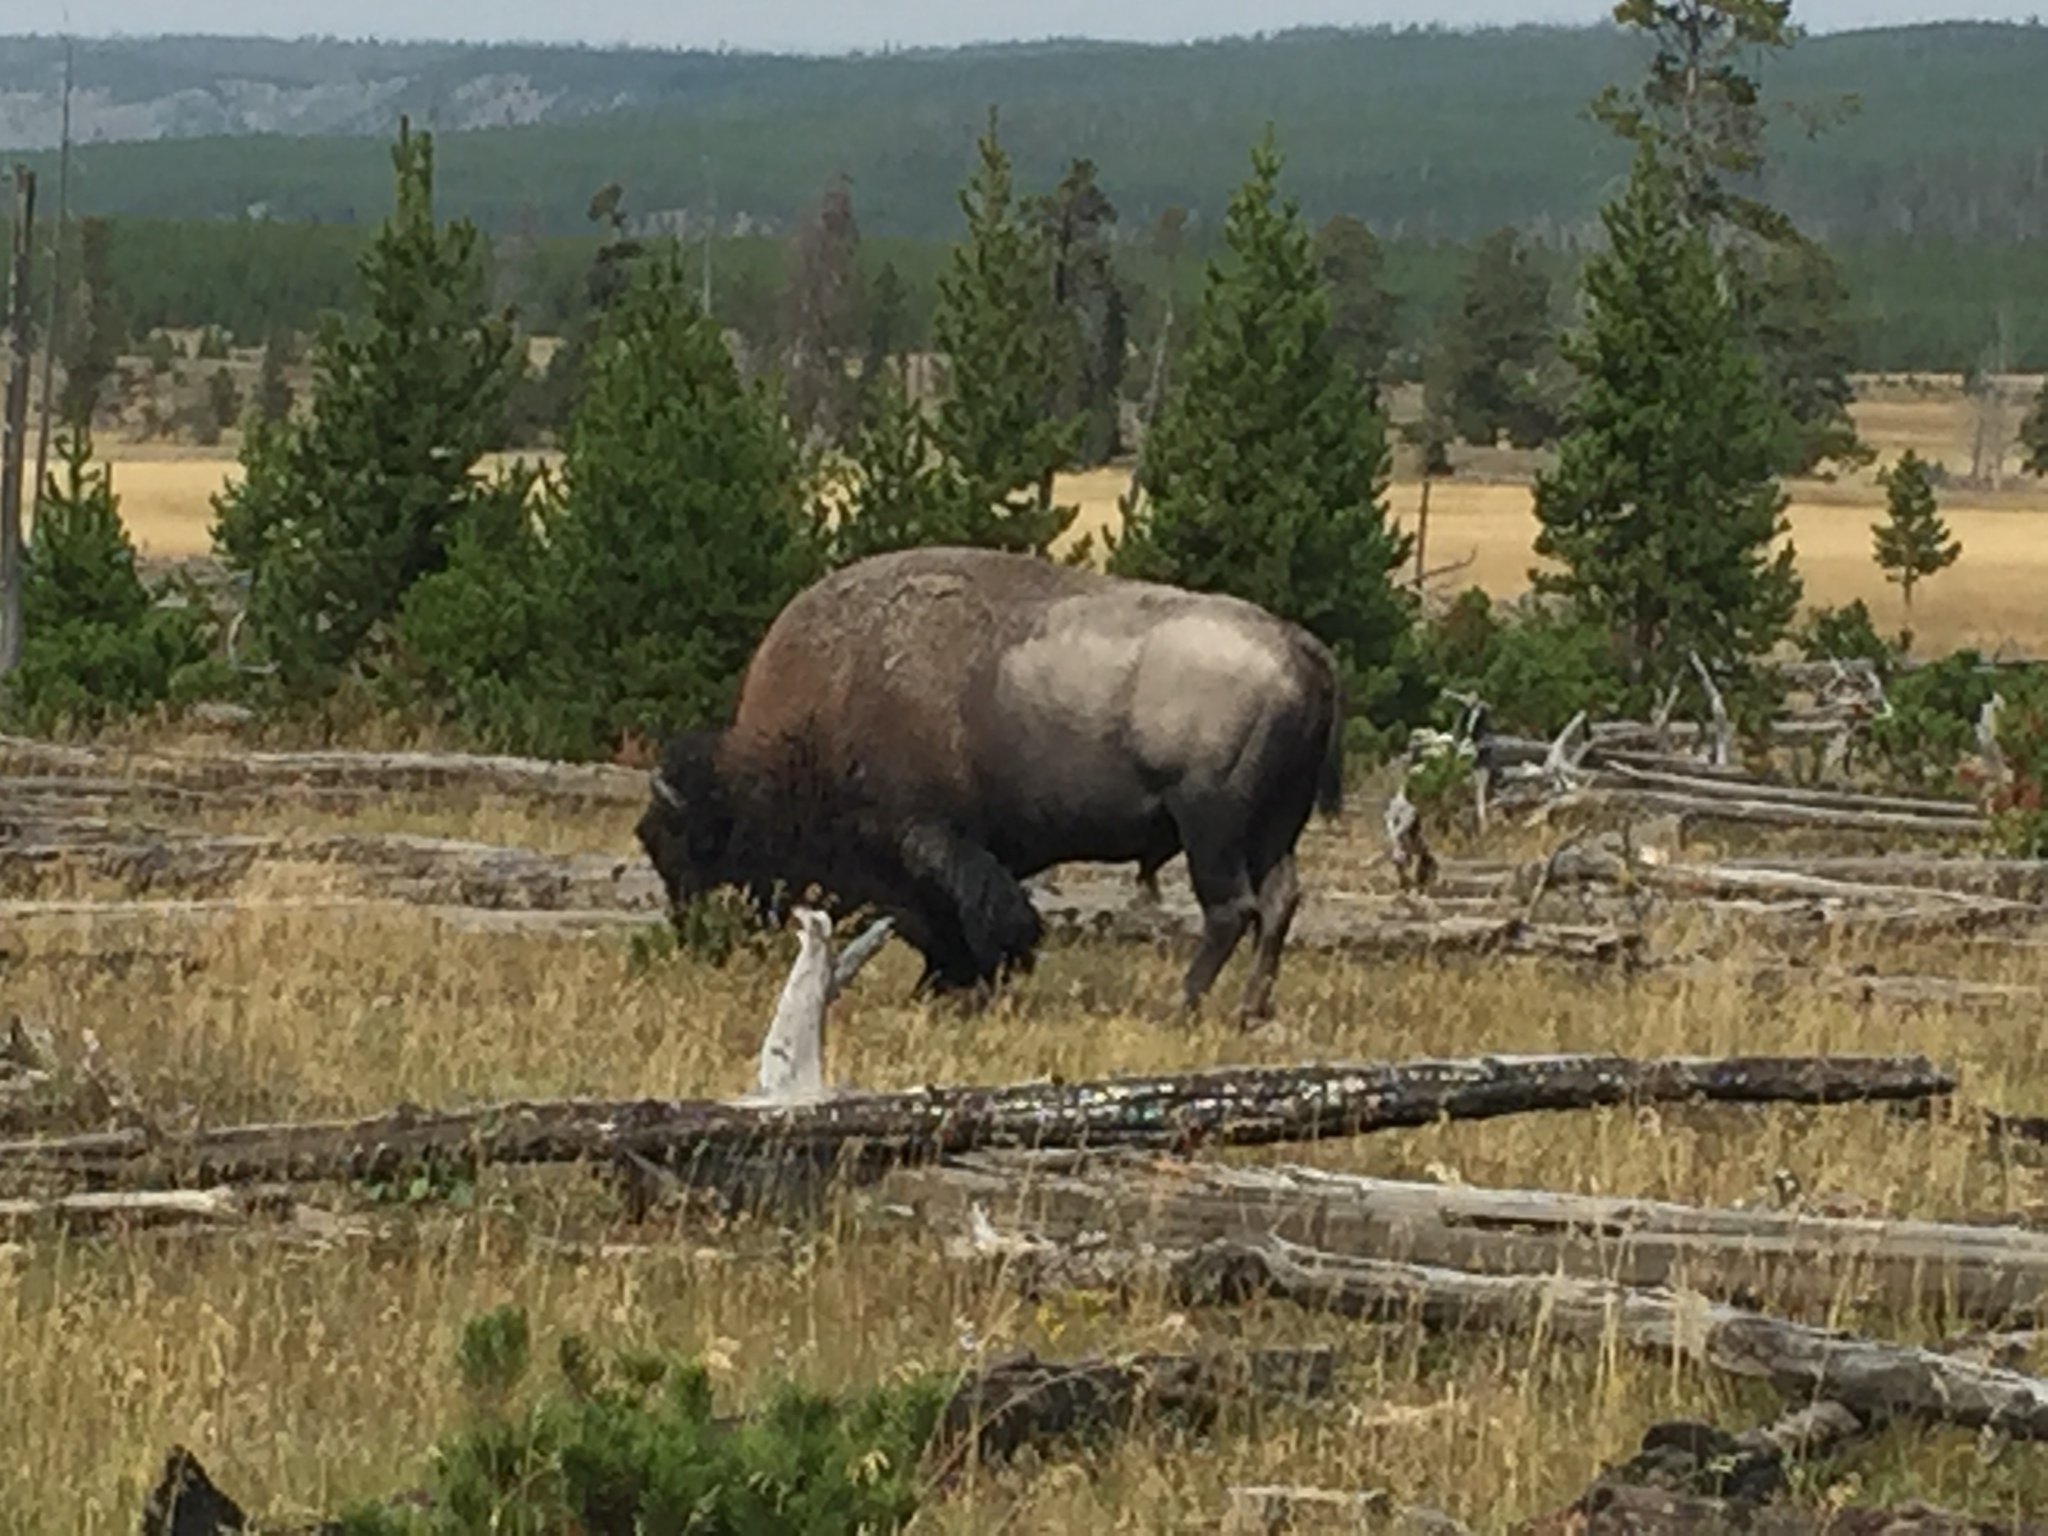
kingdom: Animalia
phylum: Chordata
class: Mammalia
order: Artiodactyla
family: Bovidae
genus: Bison
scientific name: Bison bison
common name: American bison
